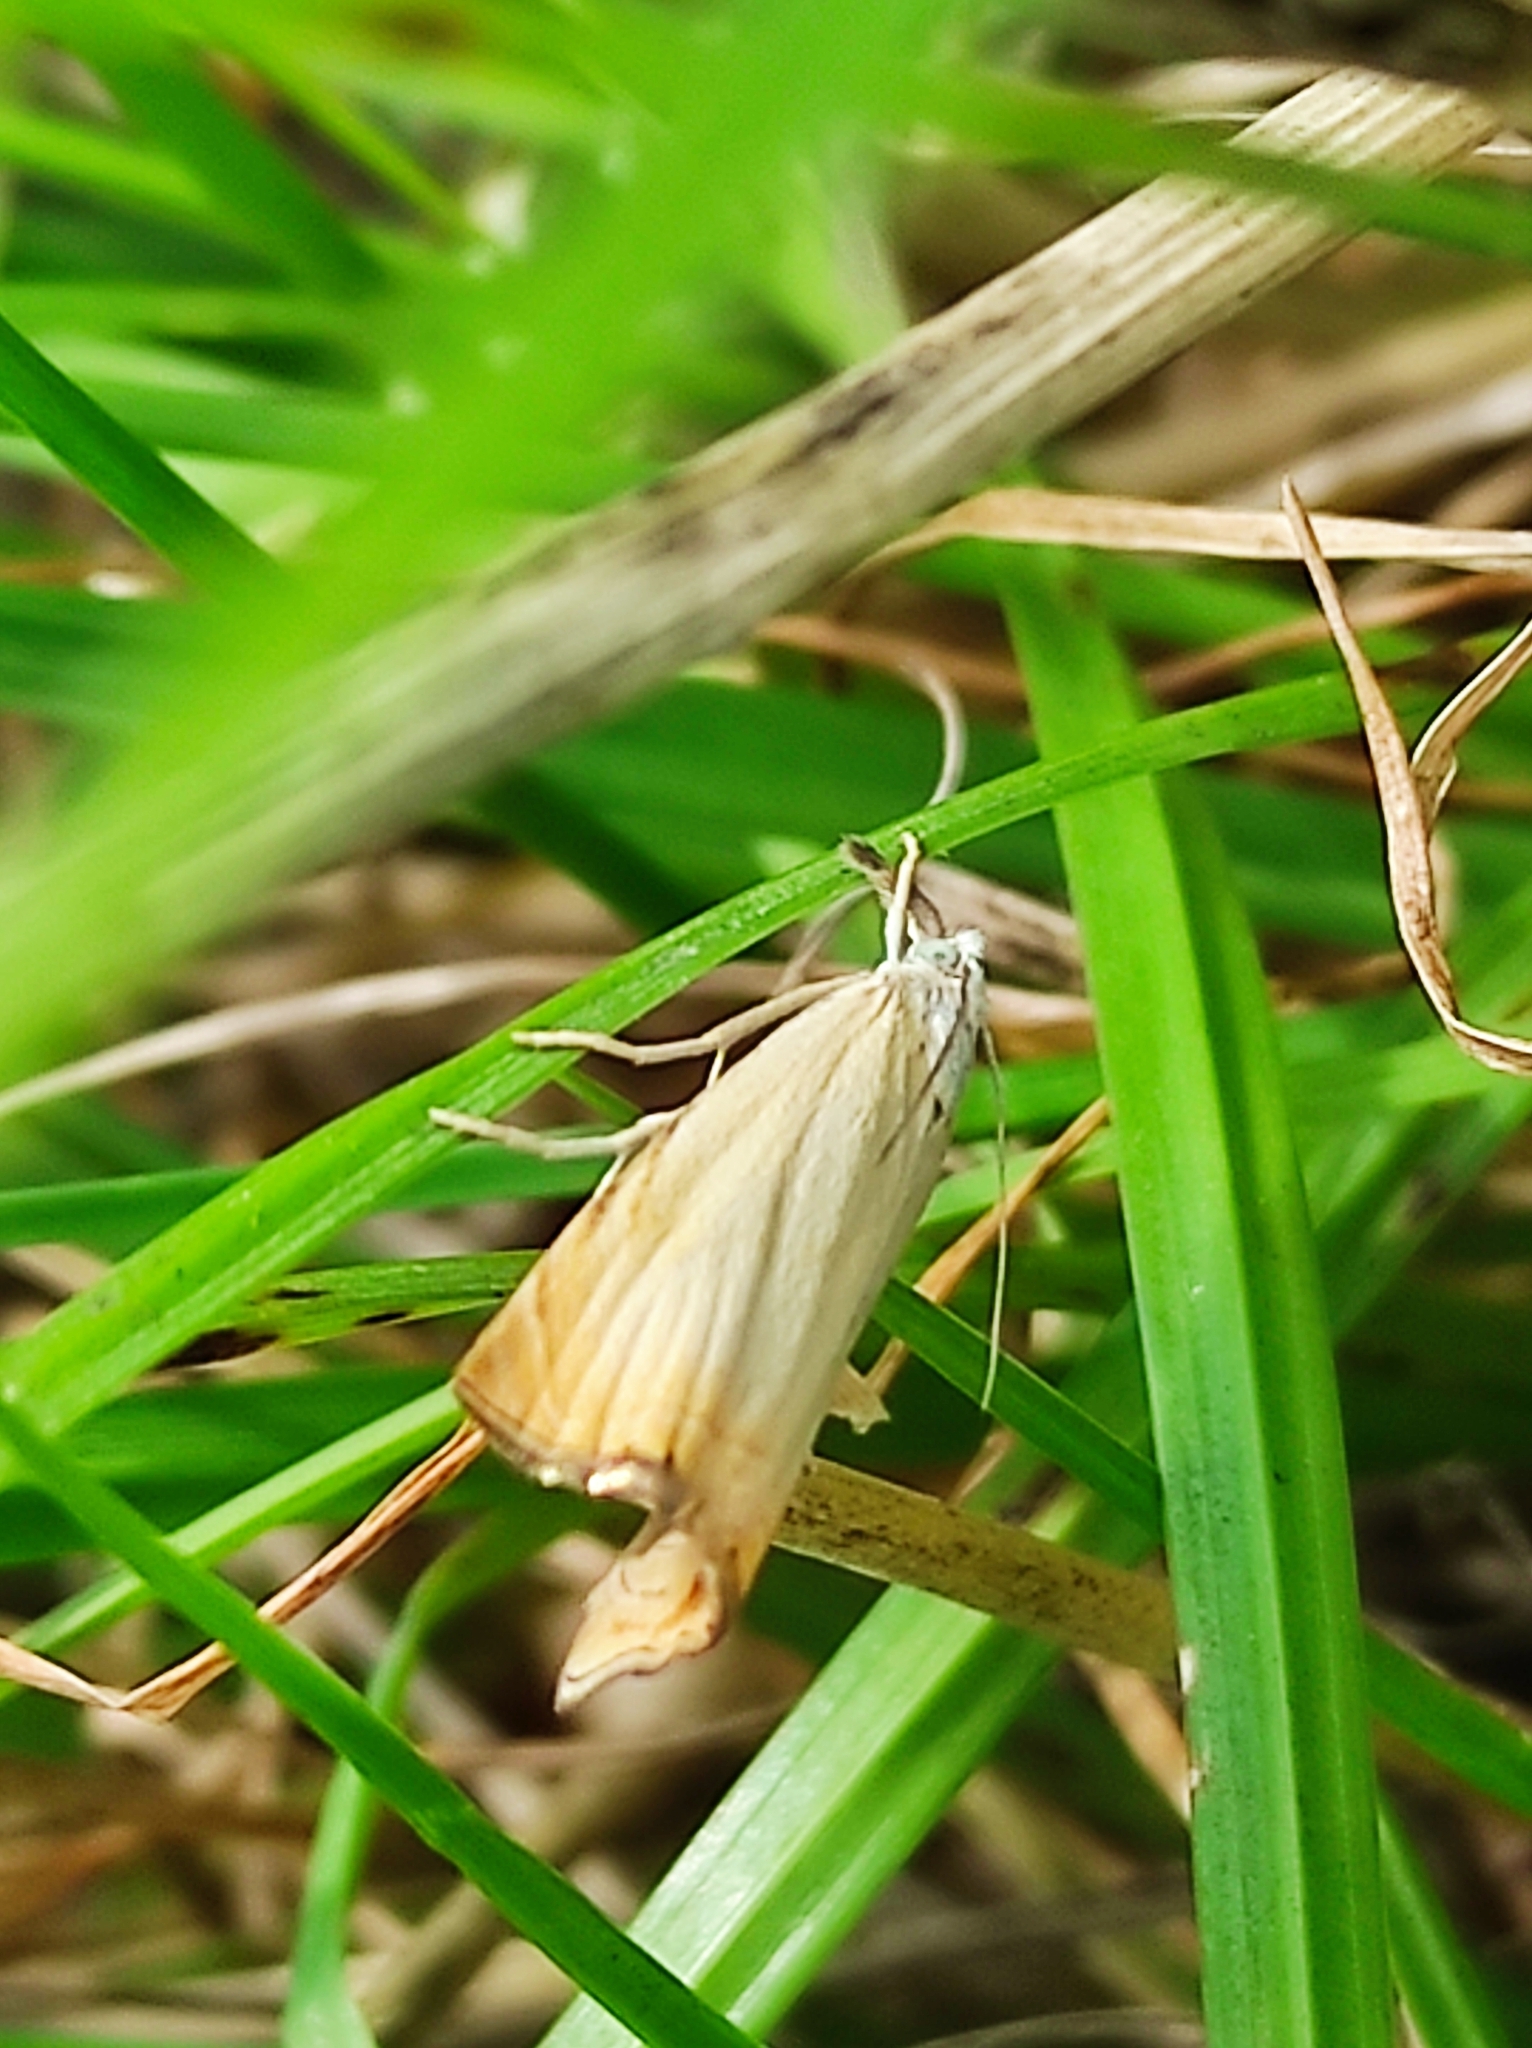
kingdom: Animalia
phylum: Arthropoda
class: Insecta
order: Lepidoptera
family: Crambidae
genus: Chrysoteuchia
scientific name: Chrysoteuchia culmella
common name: Garden grass-veneer
